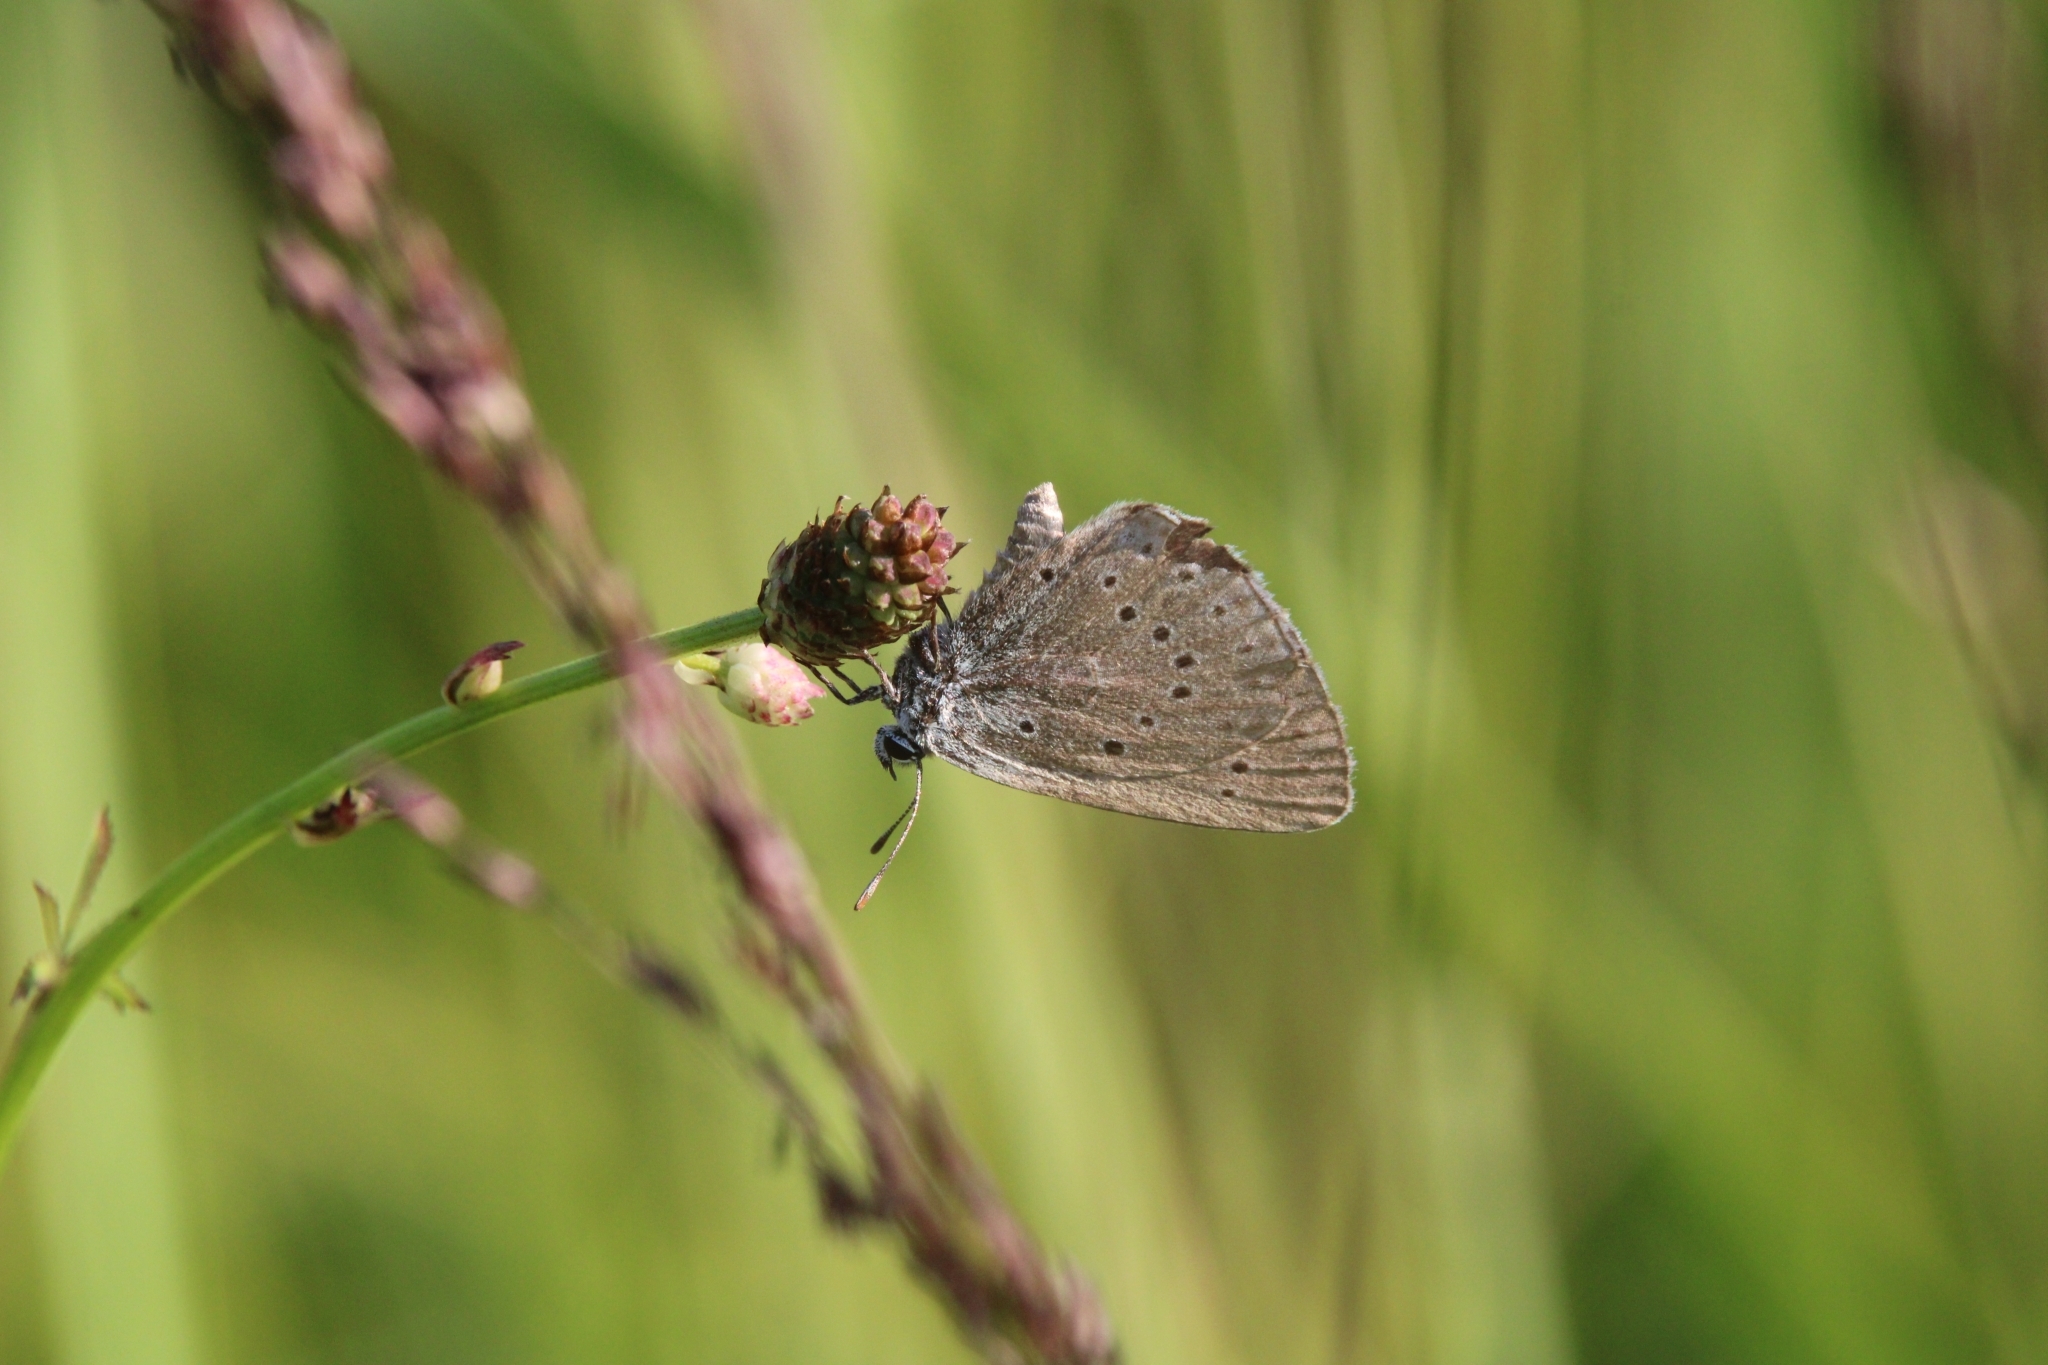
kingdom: Animalia
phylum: Arthropoda
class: Insecta
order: Lepidoptera
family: Lycaenidae
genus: Phengaris
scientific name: Phengaris teleius
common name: Scarce large blue
